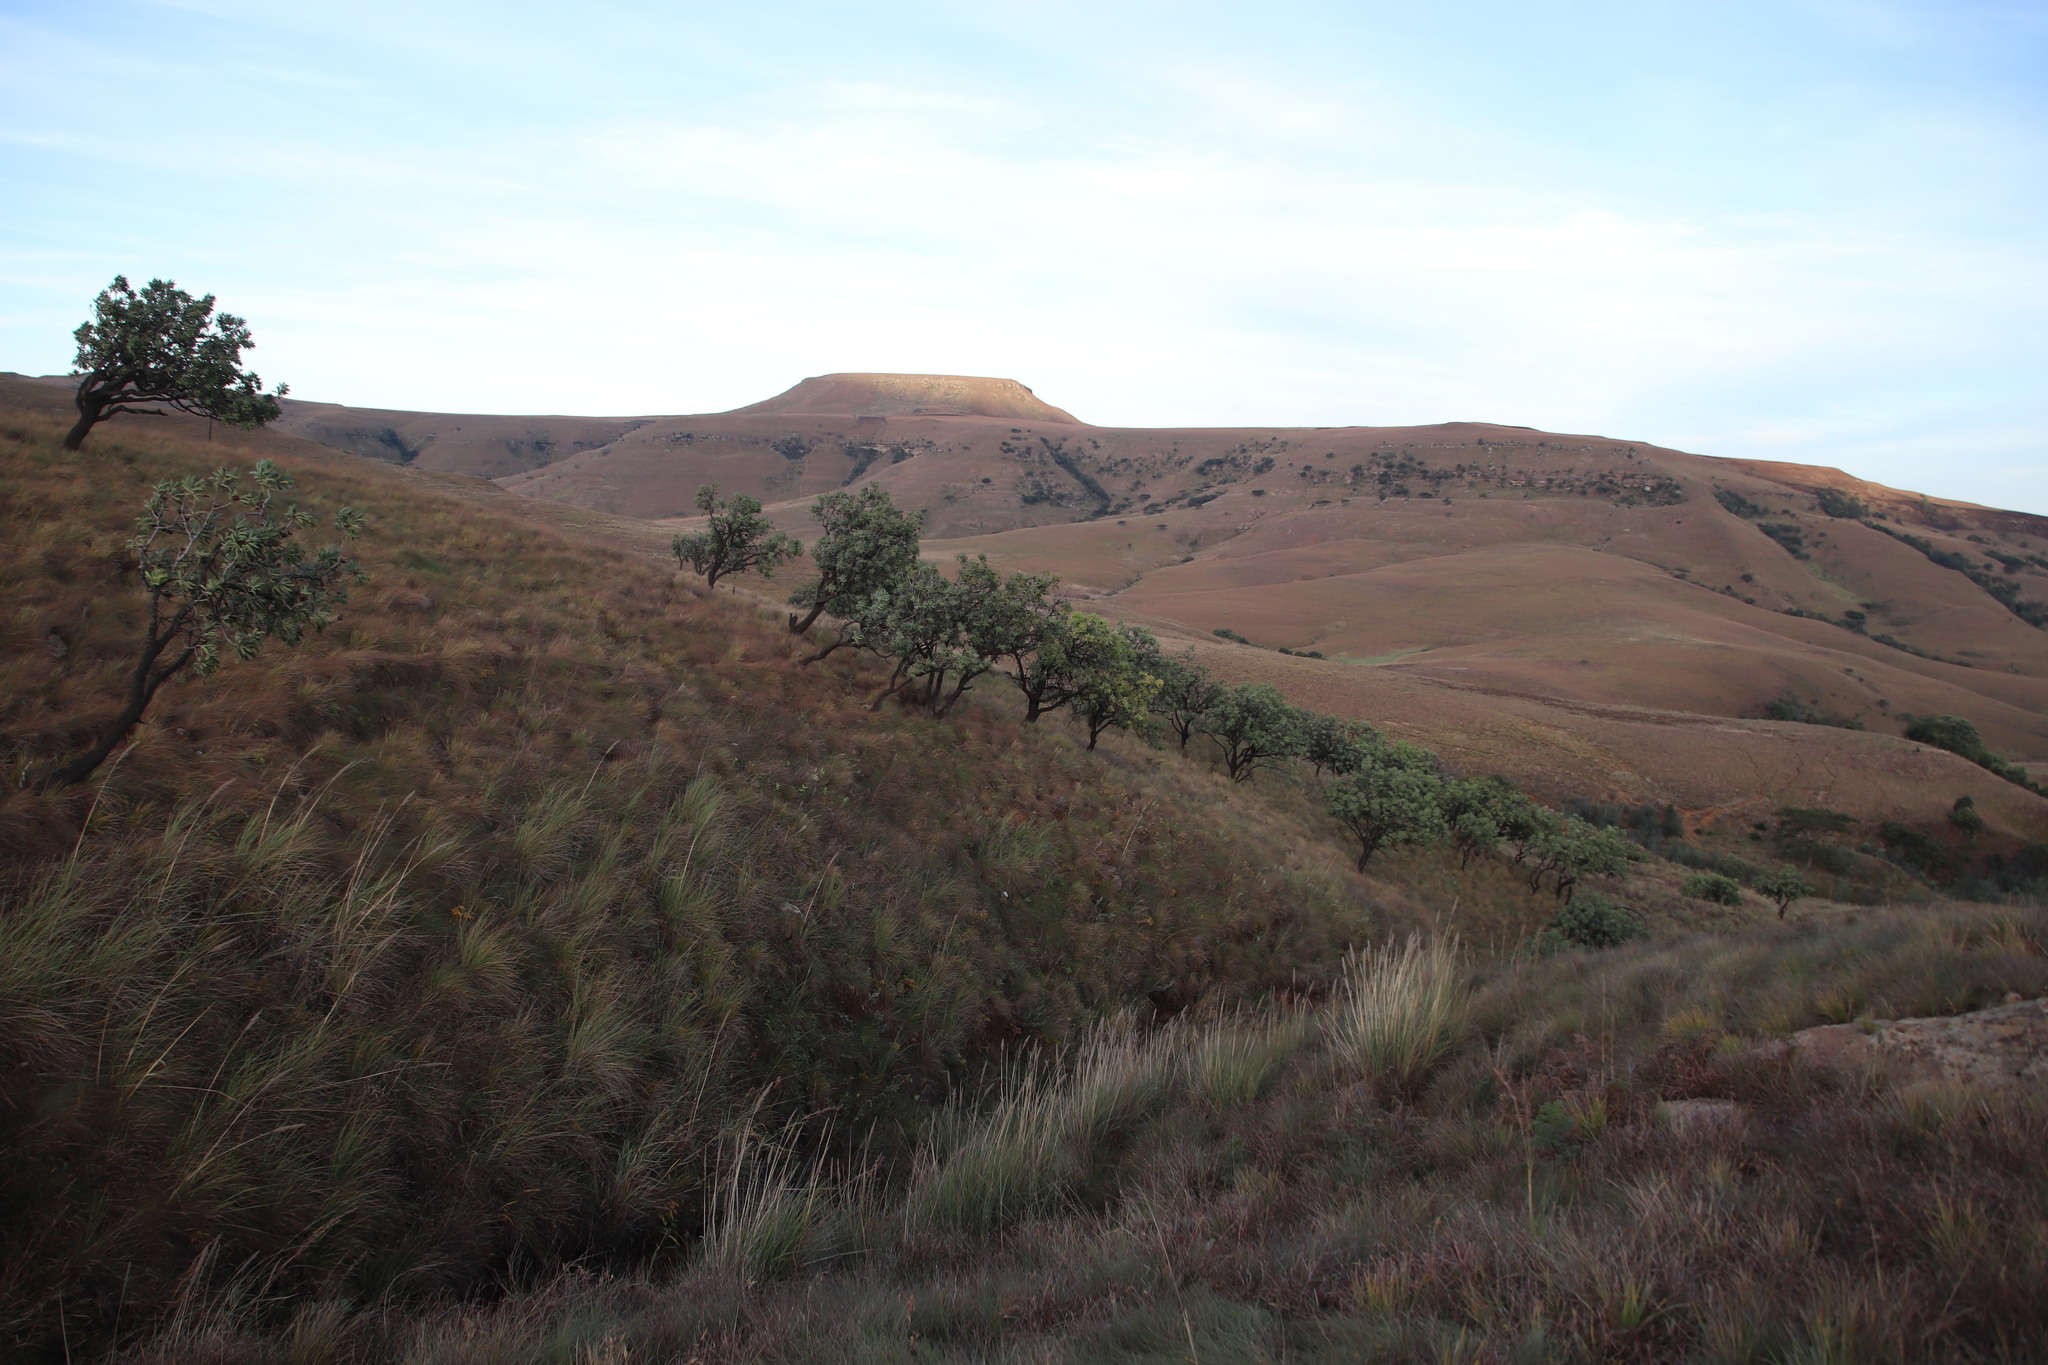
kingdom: Plantae
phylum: Tracheophyta
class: Magnoliopsida
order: Proteales
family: Proteaceae
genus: Protea
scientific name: Protea caffra
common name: Common sugarbush
